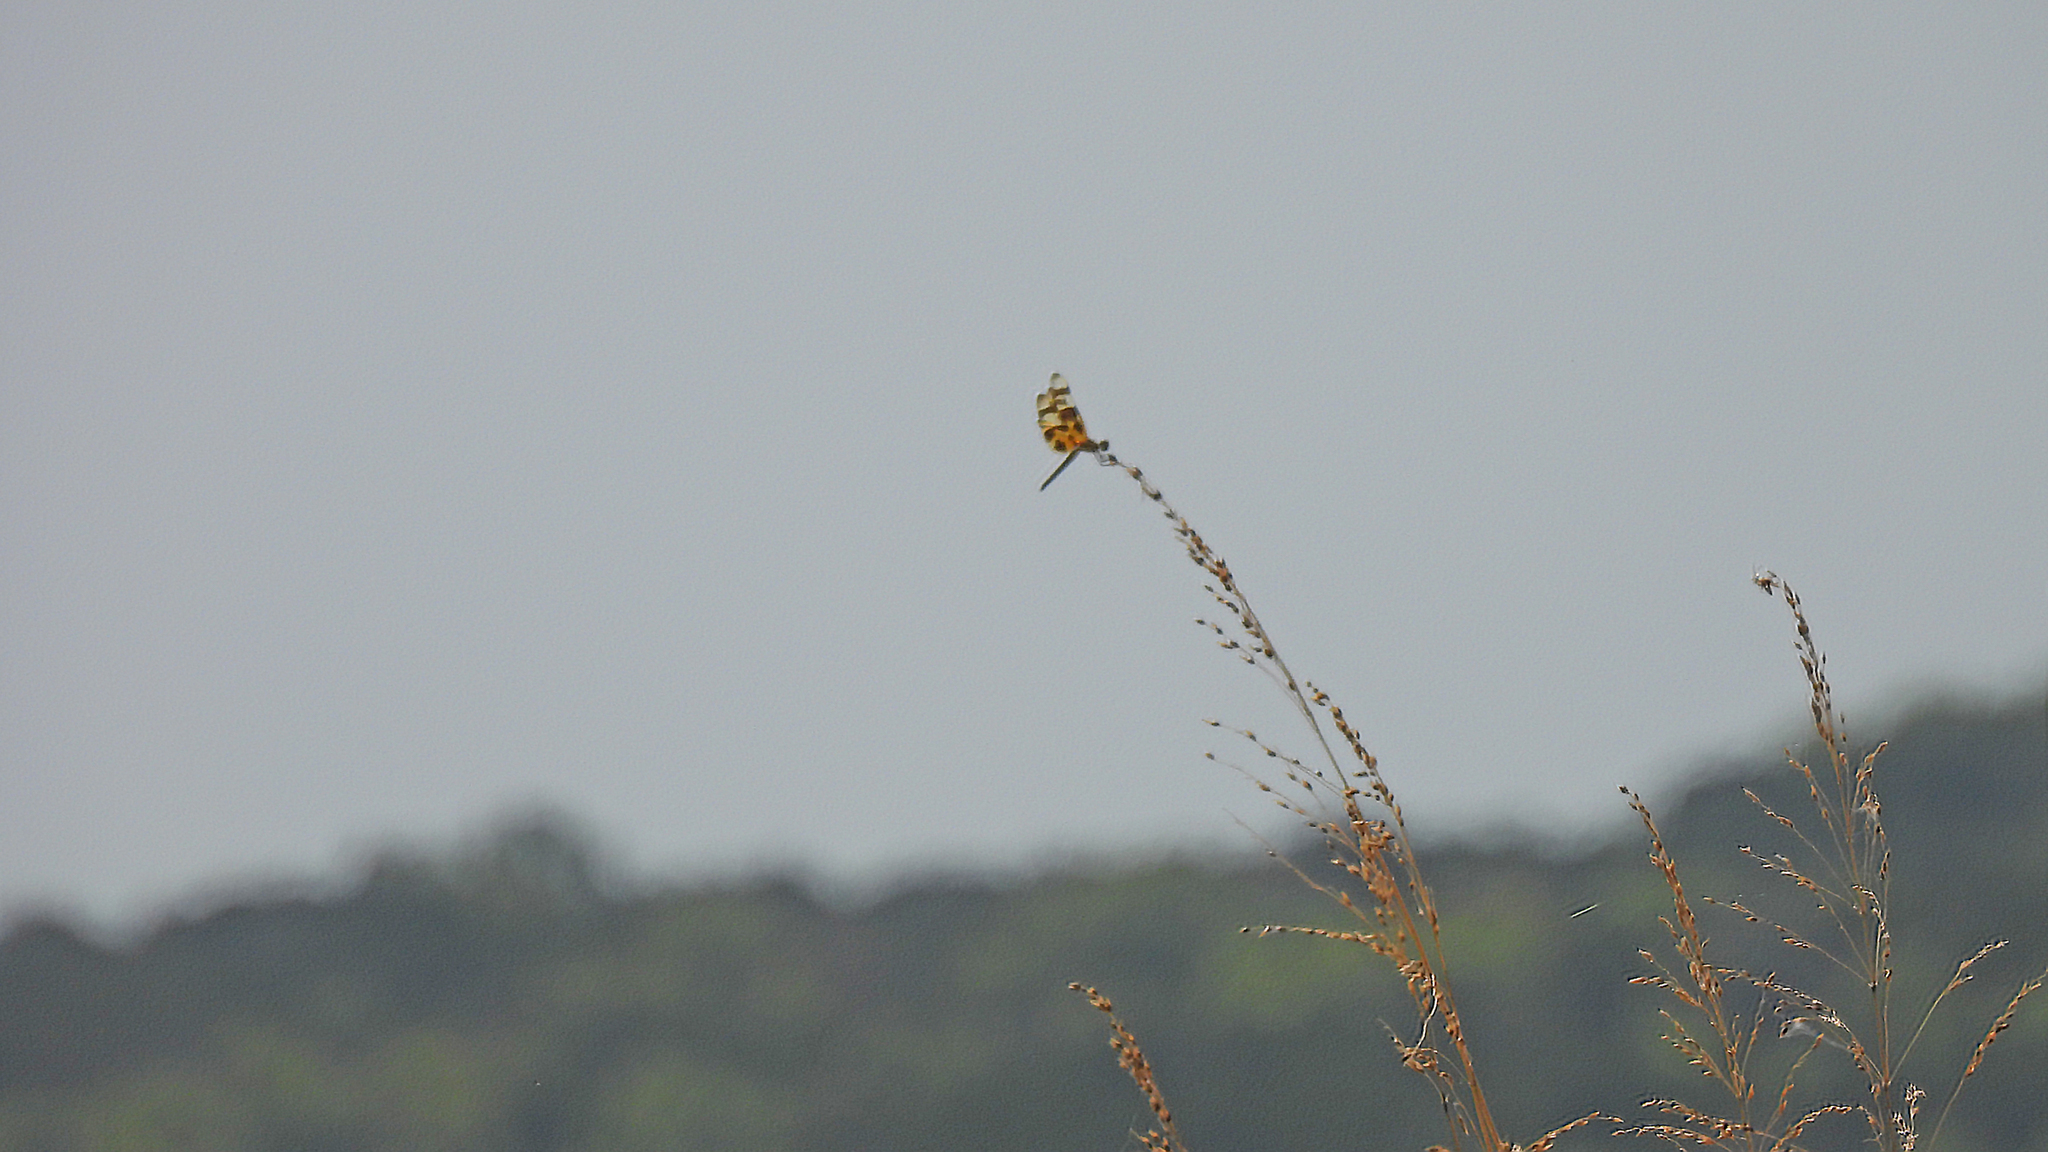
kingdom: Animalia
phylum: Arthropoda
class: Insecta
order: Odonata
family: Libellulidae
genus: Celithemis
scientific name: Celithemis eponina
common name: Halloween pennant
